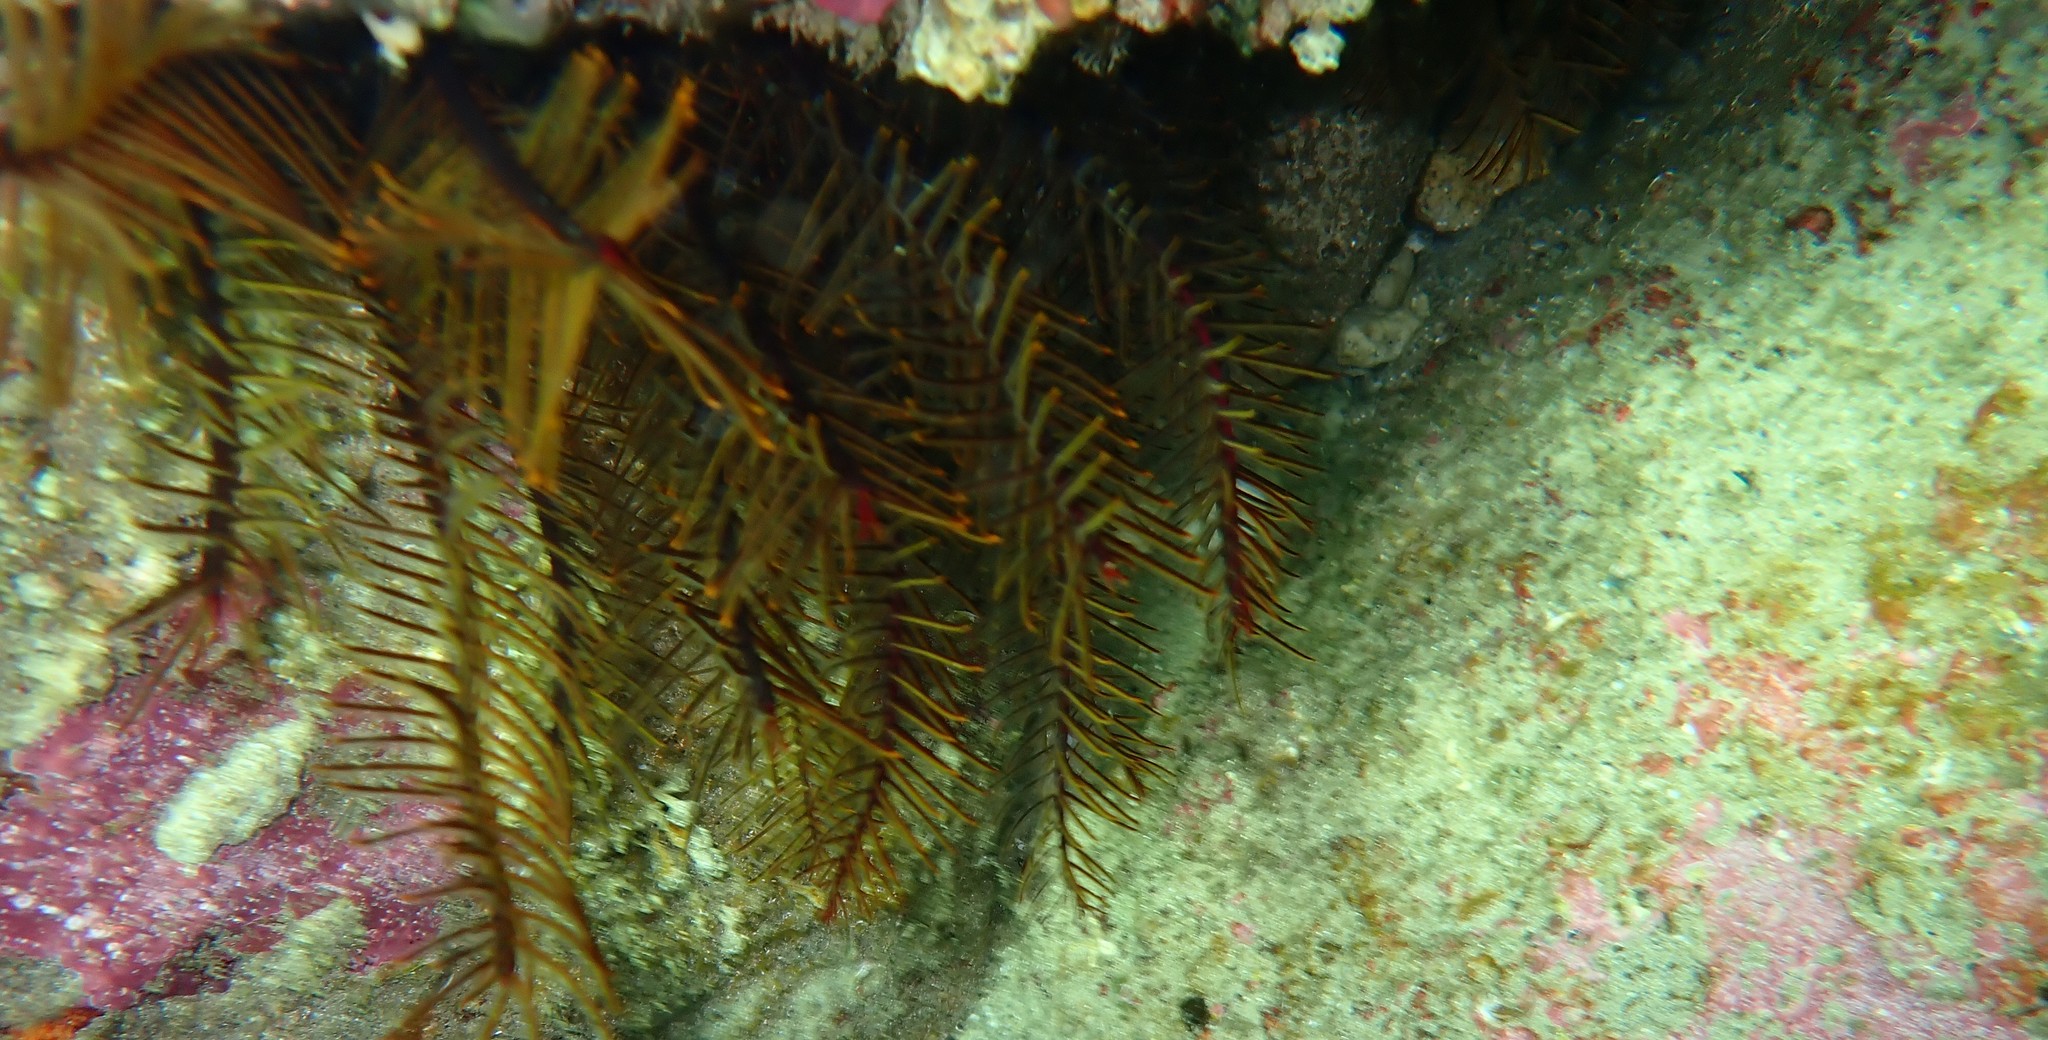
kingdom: Animalia
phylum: Echinodermata
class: Crinoidea
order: Comatulida
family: Comatulidae
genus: Cenolia
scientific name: Cenolia trichoptera
